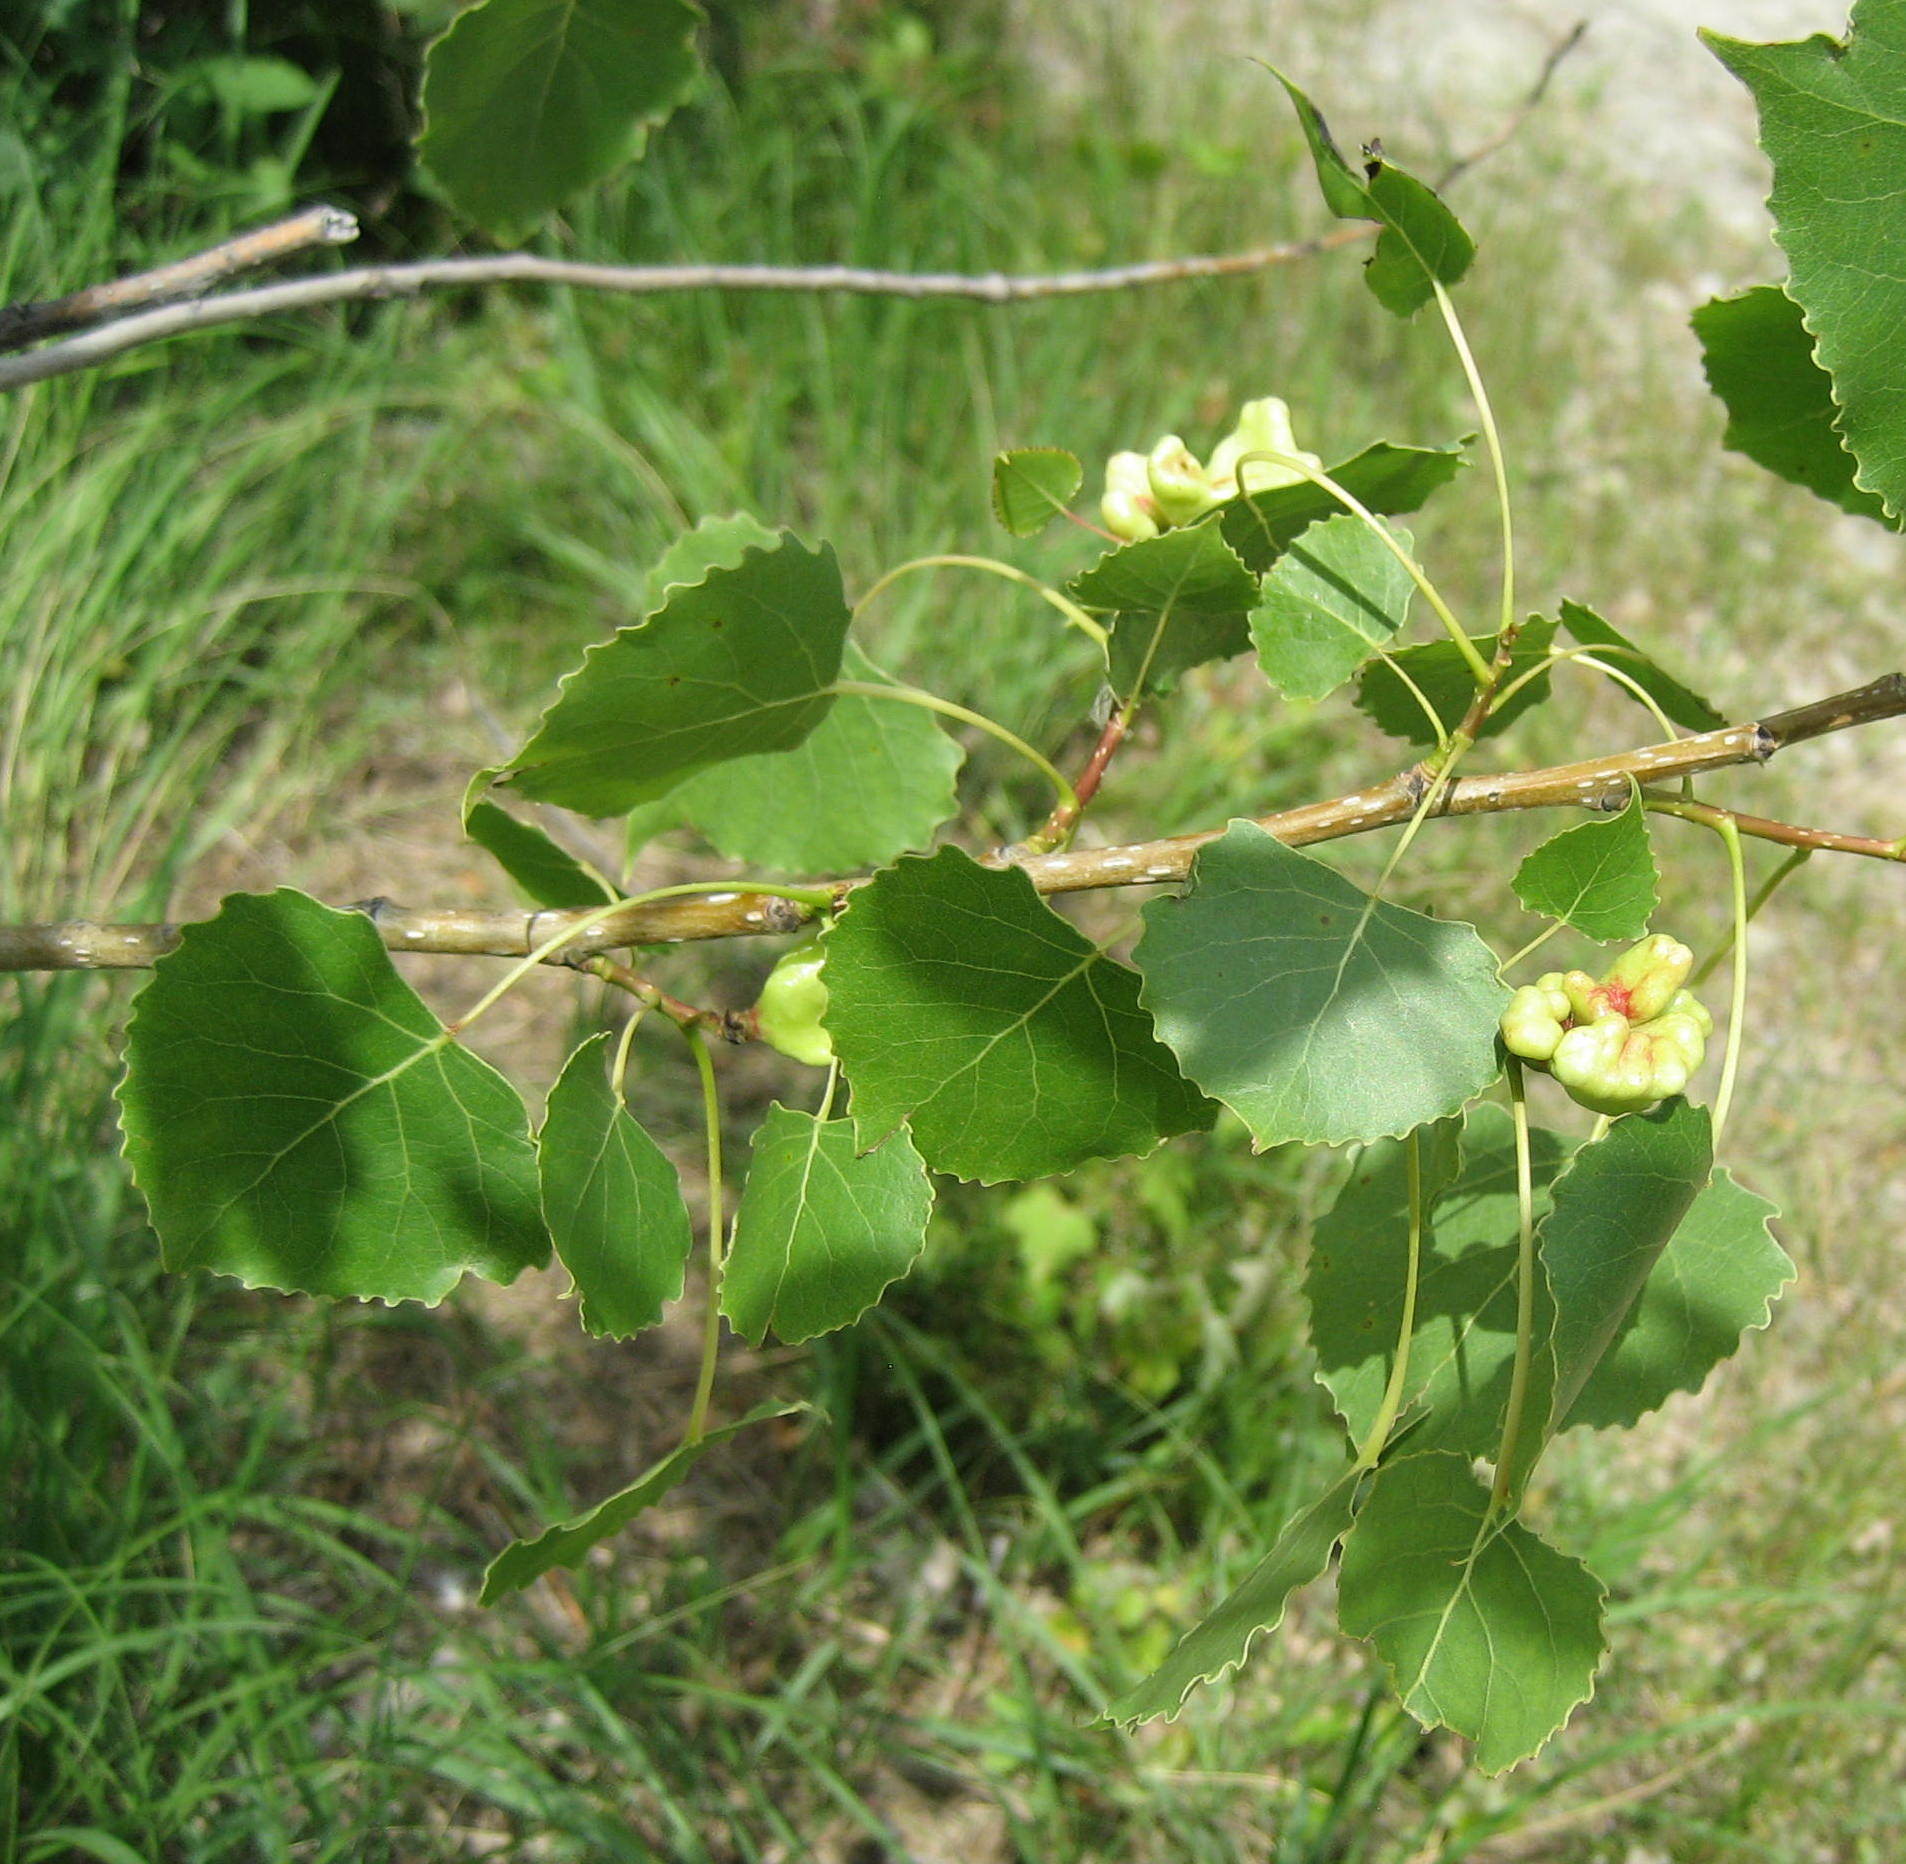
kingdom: Animalia
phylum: Arthropoda
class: Insecta
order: Hemiptera
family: Aphididae
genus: Mordwilkoja
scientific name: Mordwilkoja vagabunda
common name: Poplar vagabond aphid
